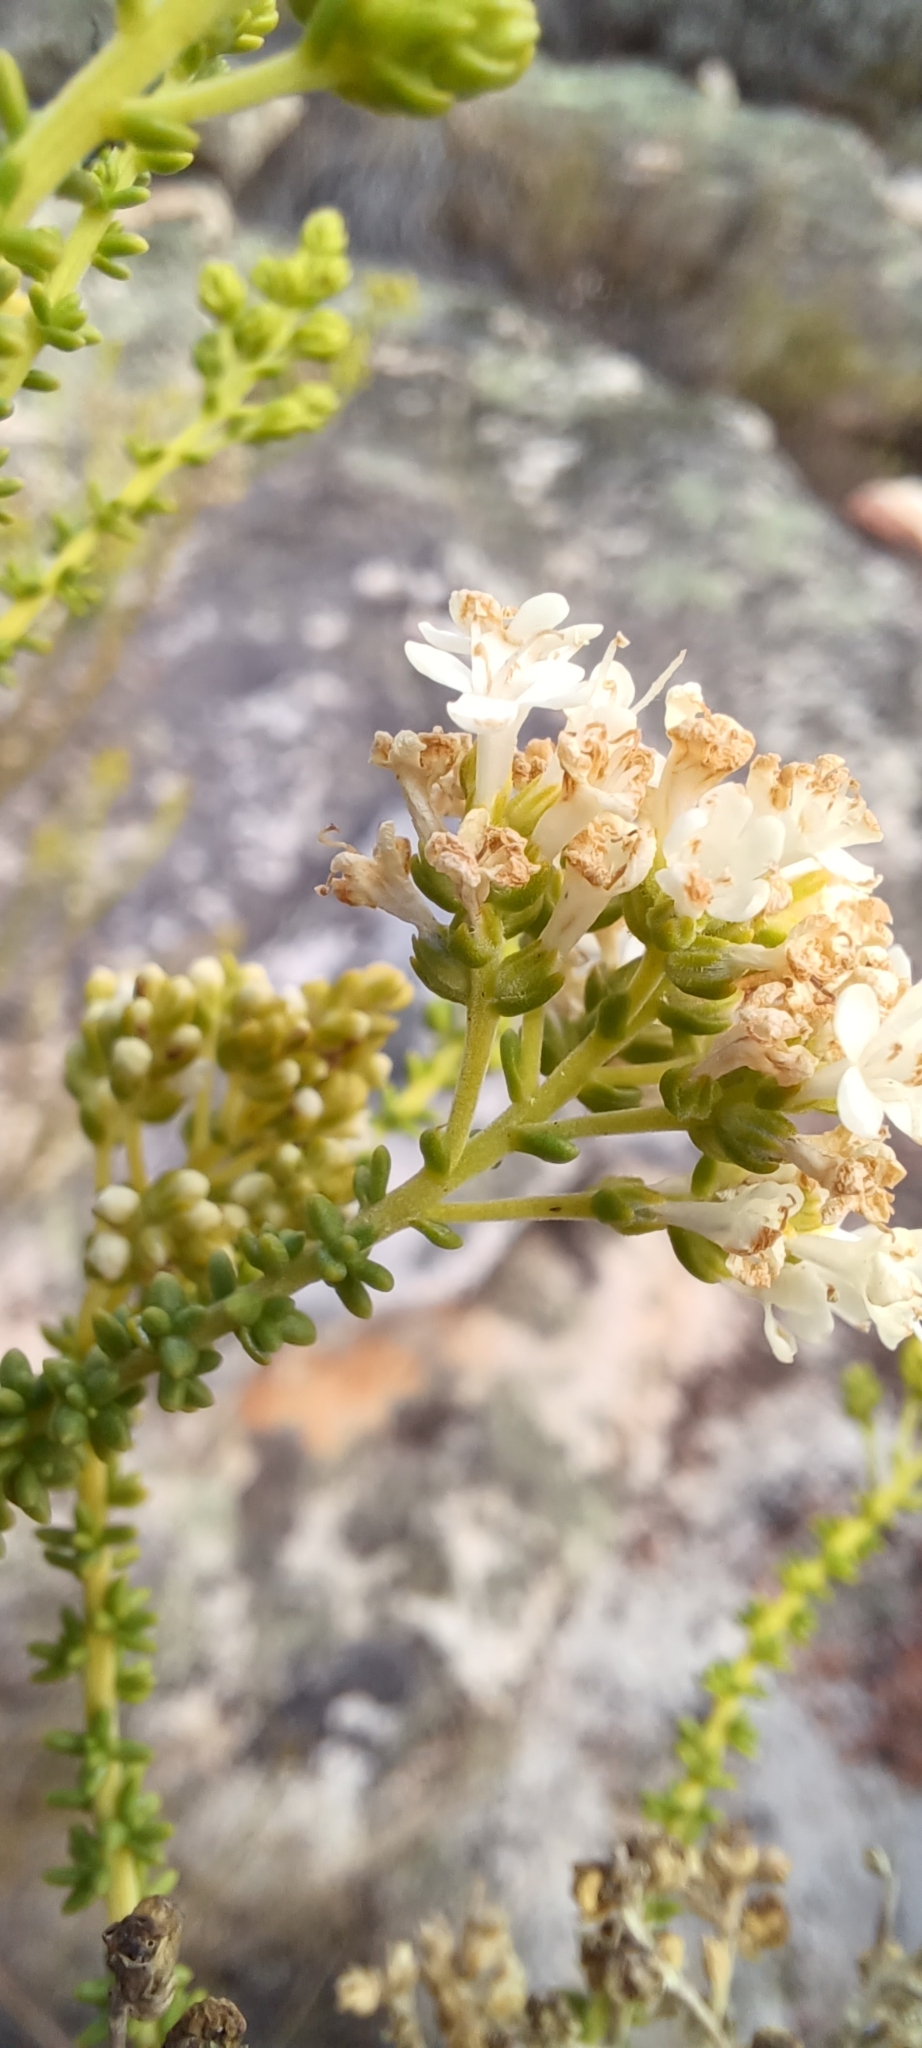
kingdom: Plantae
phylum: Tracheophyta
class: Magnoliopsida
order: Lamiales
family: Scrophulariaceae
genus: Selago
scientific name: Selago singularis
